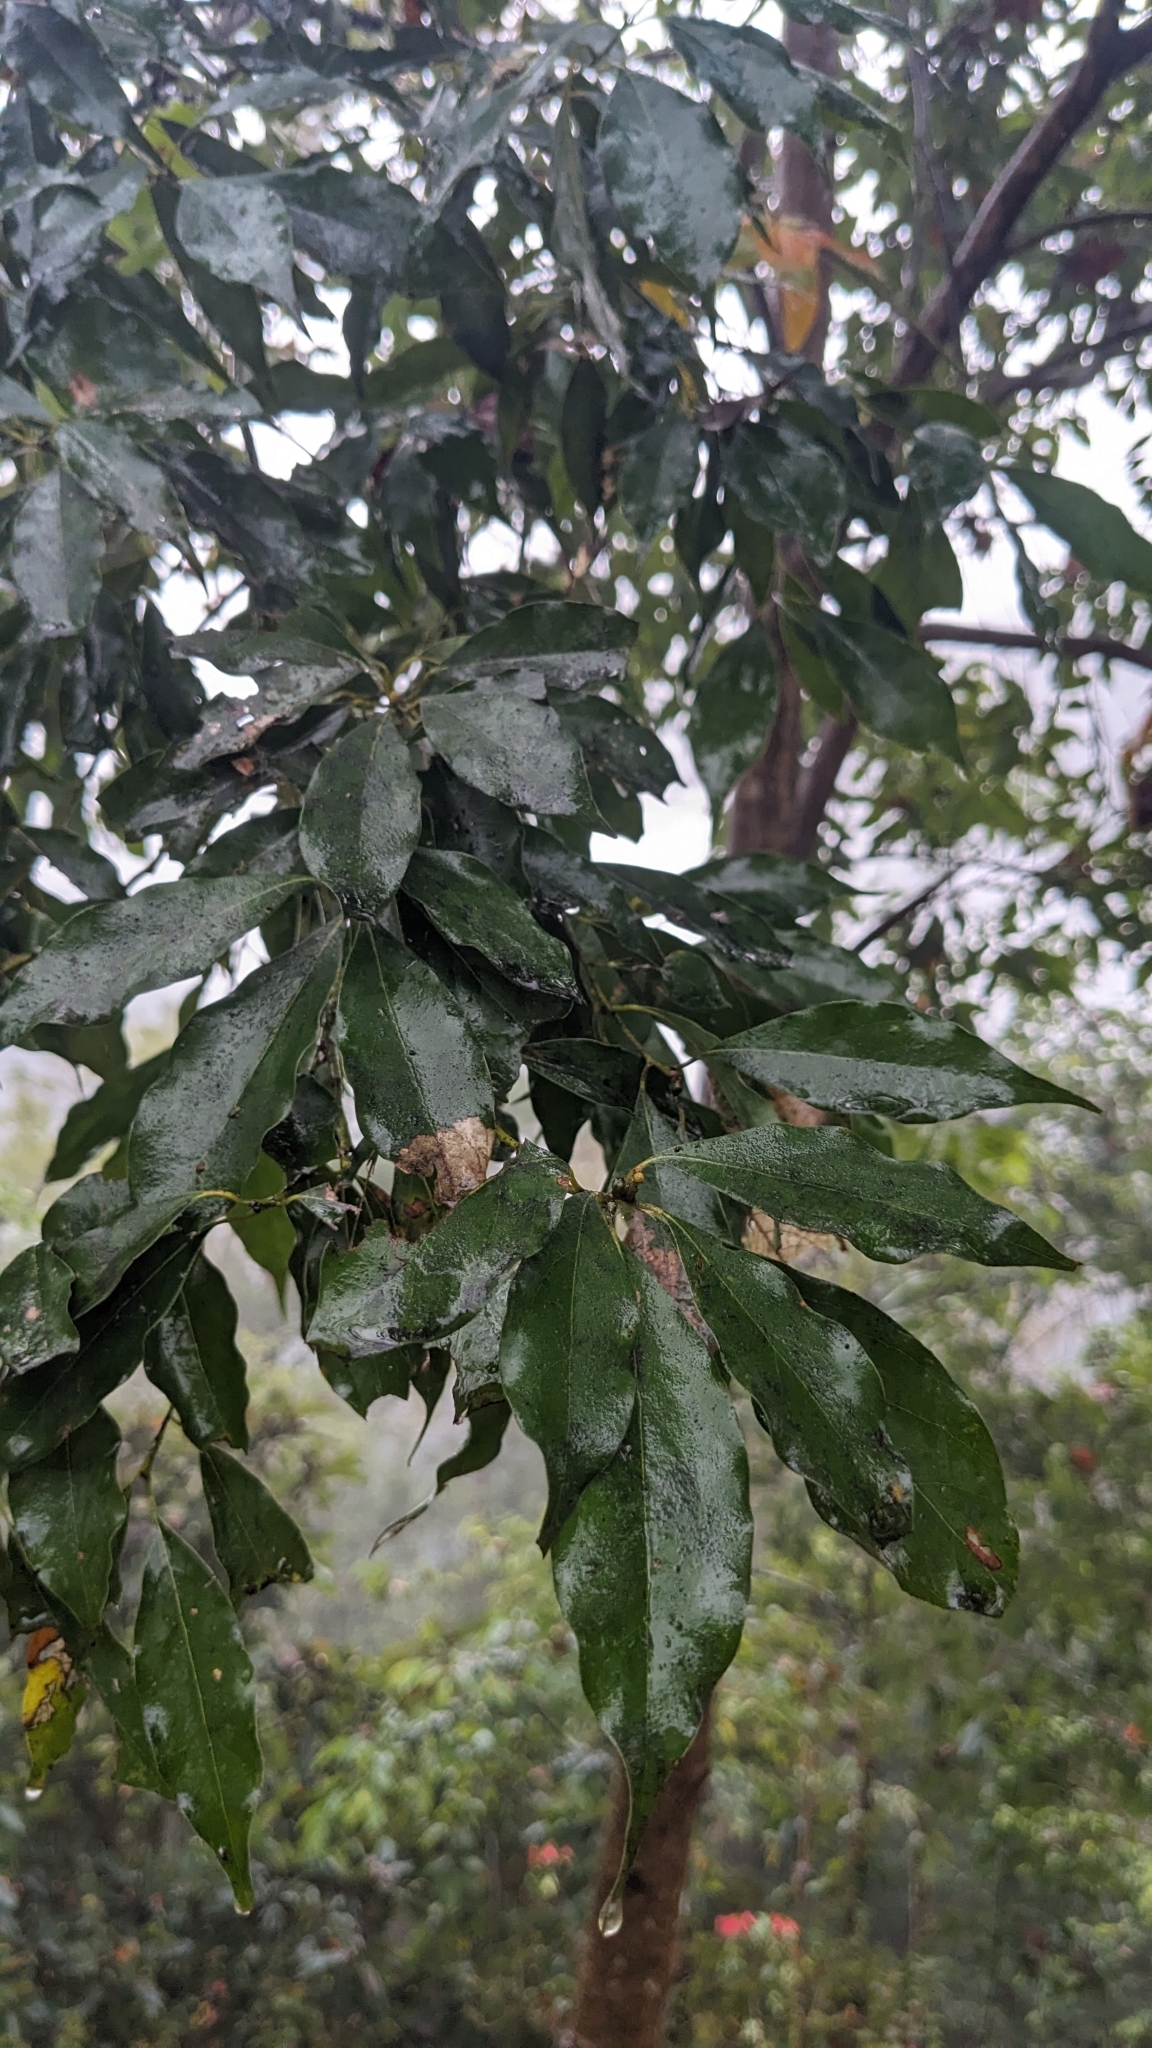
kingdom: Plantae
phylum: Tracheophyta
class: Magnoliopsida
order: Laurales
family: Lauraceae
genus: Cinnamomum
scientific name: Cinnamomum philippinense
